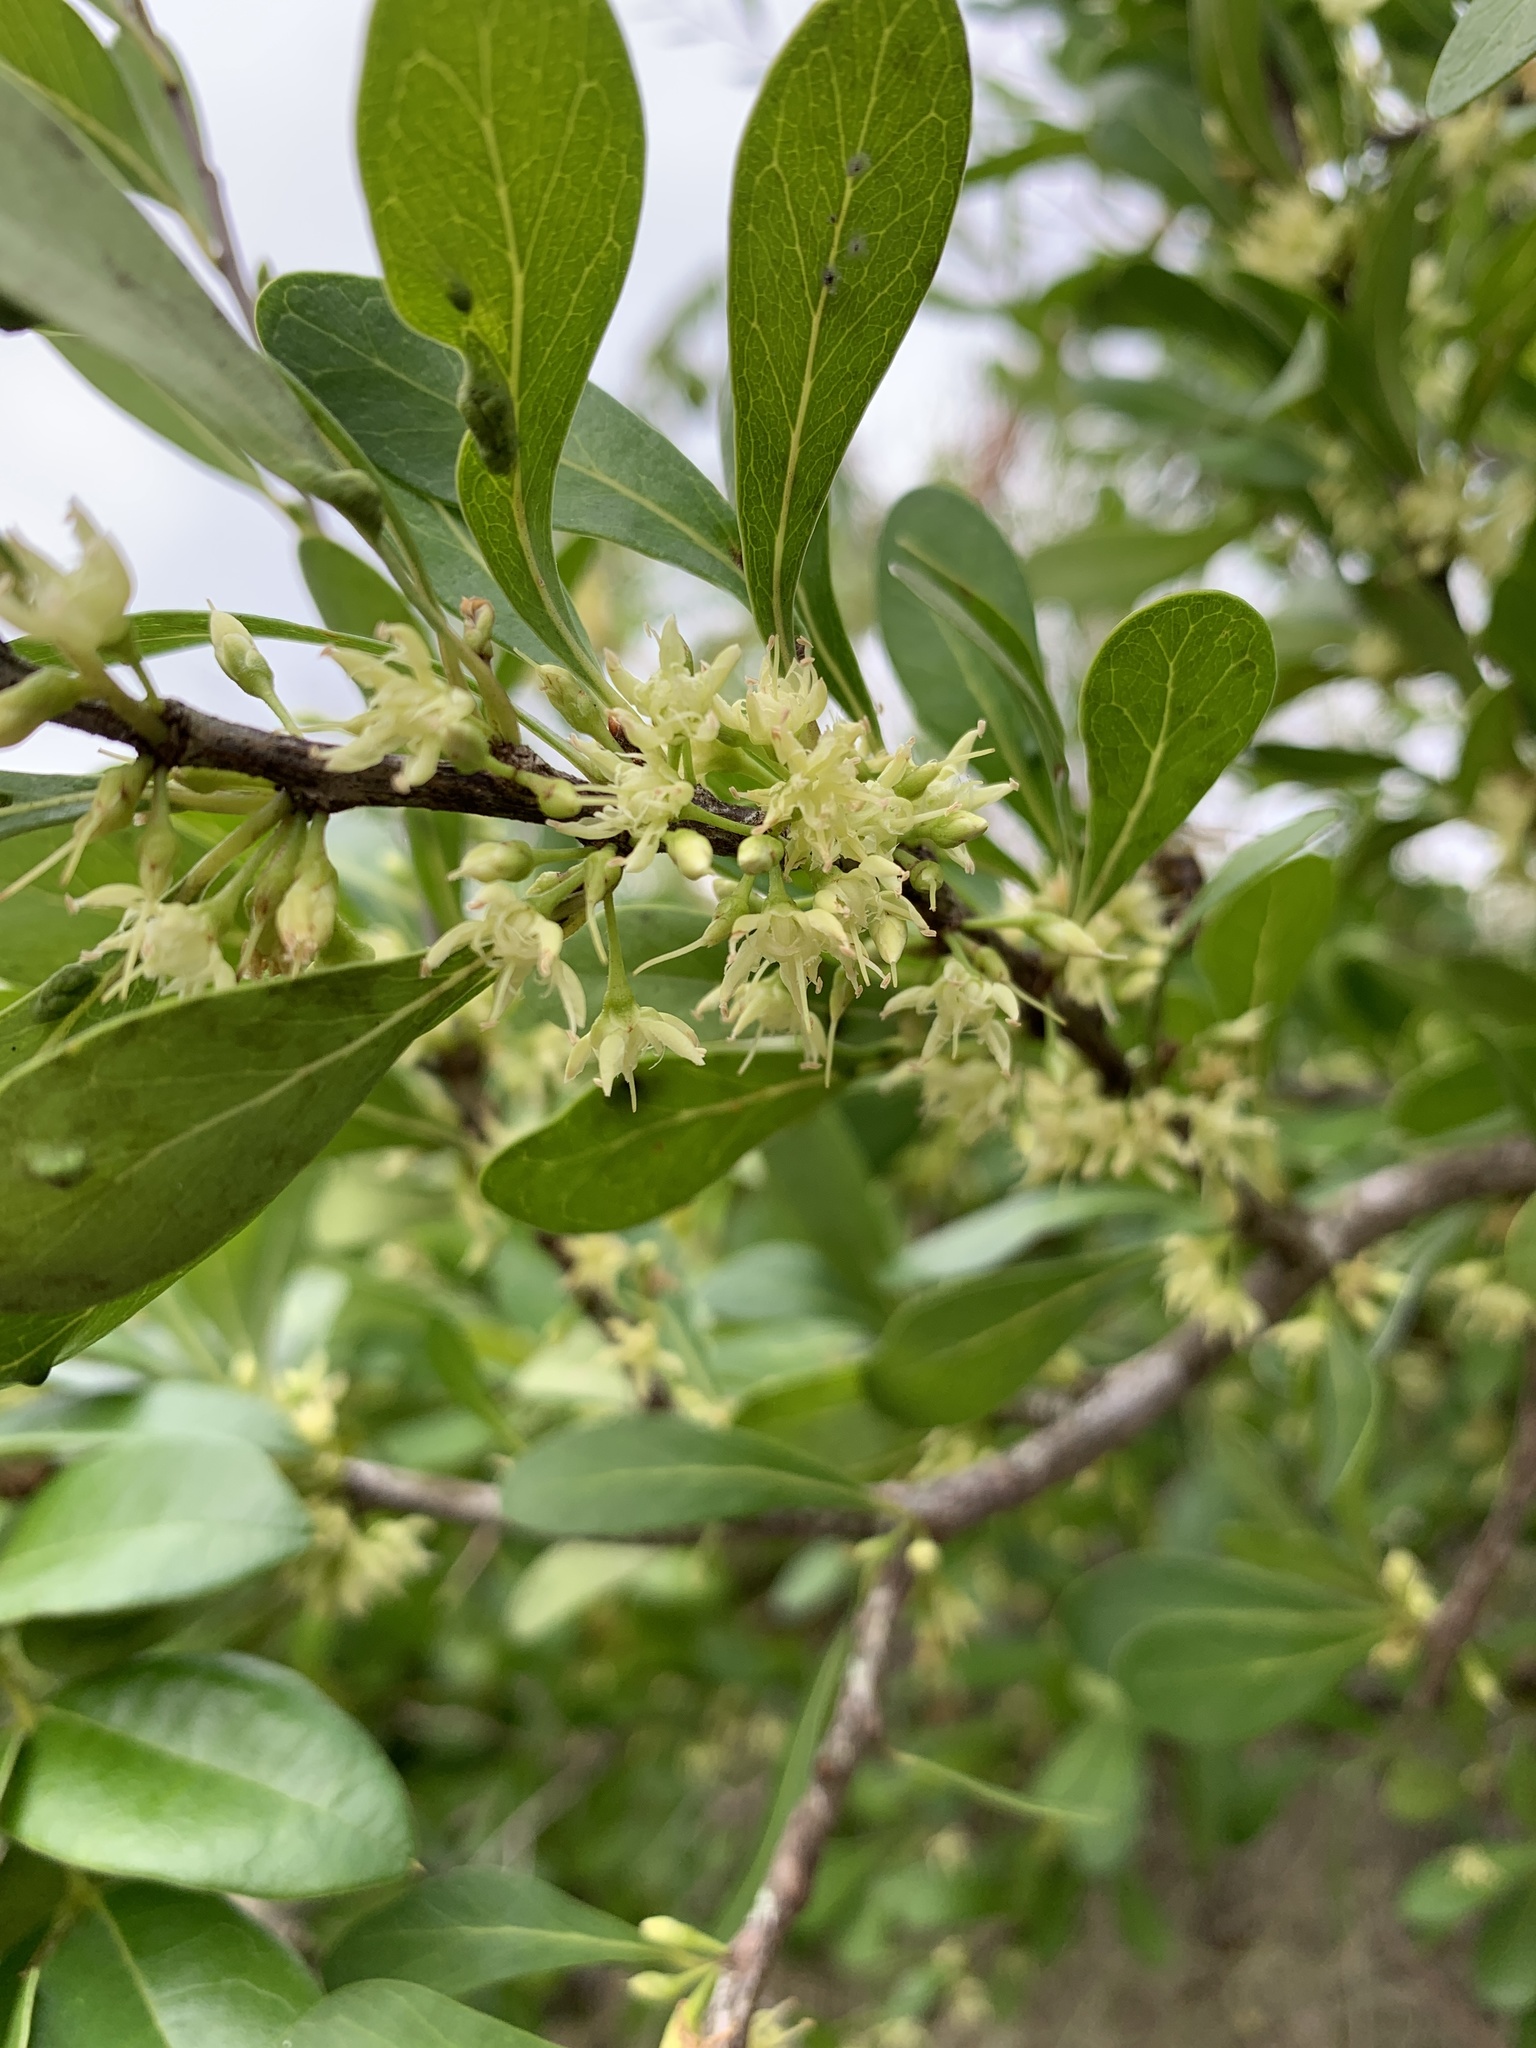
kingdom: Plantae
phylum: Tracheophyta
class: Magnoliopsida
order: Ericales
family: Sapotaceae
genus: Sideroxylon
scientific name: Sideroxylon celastrinum
